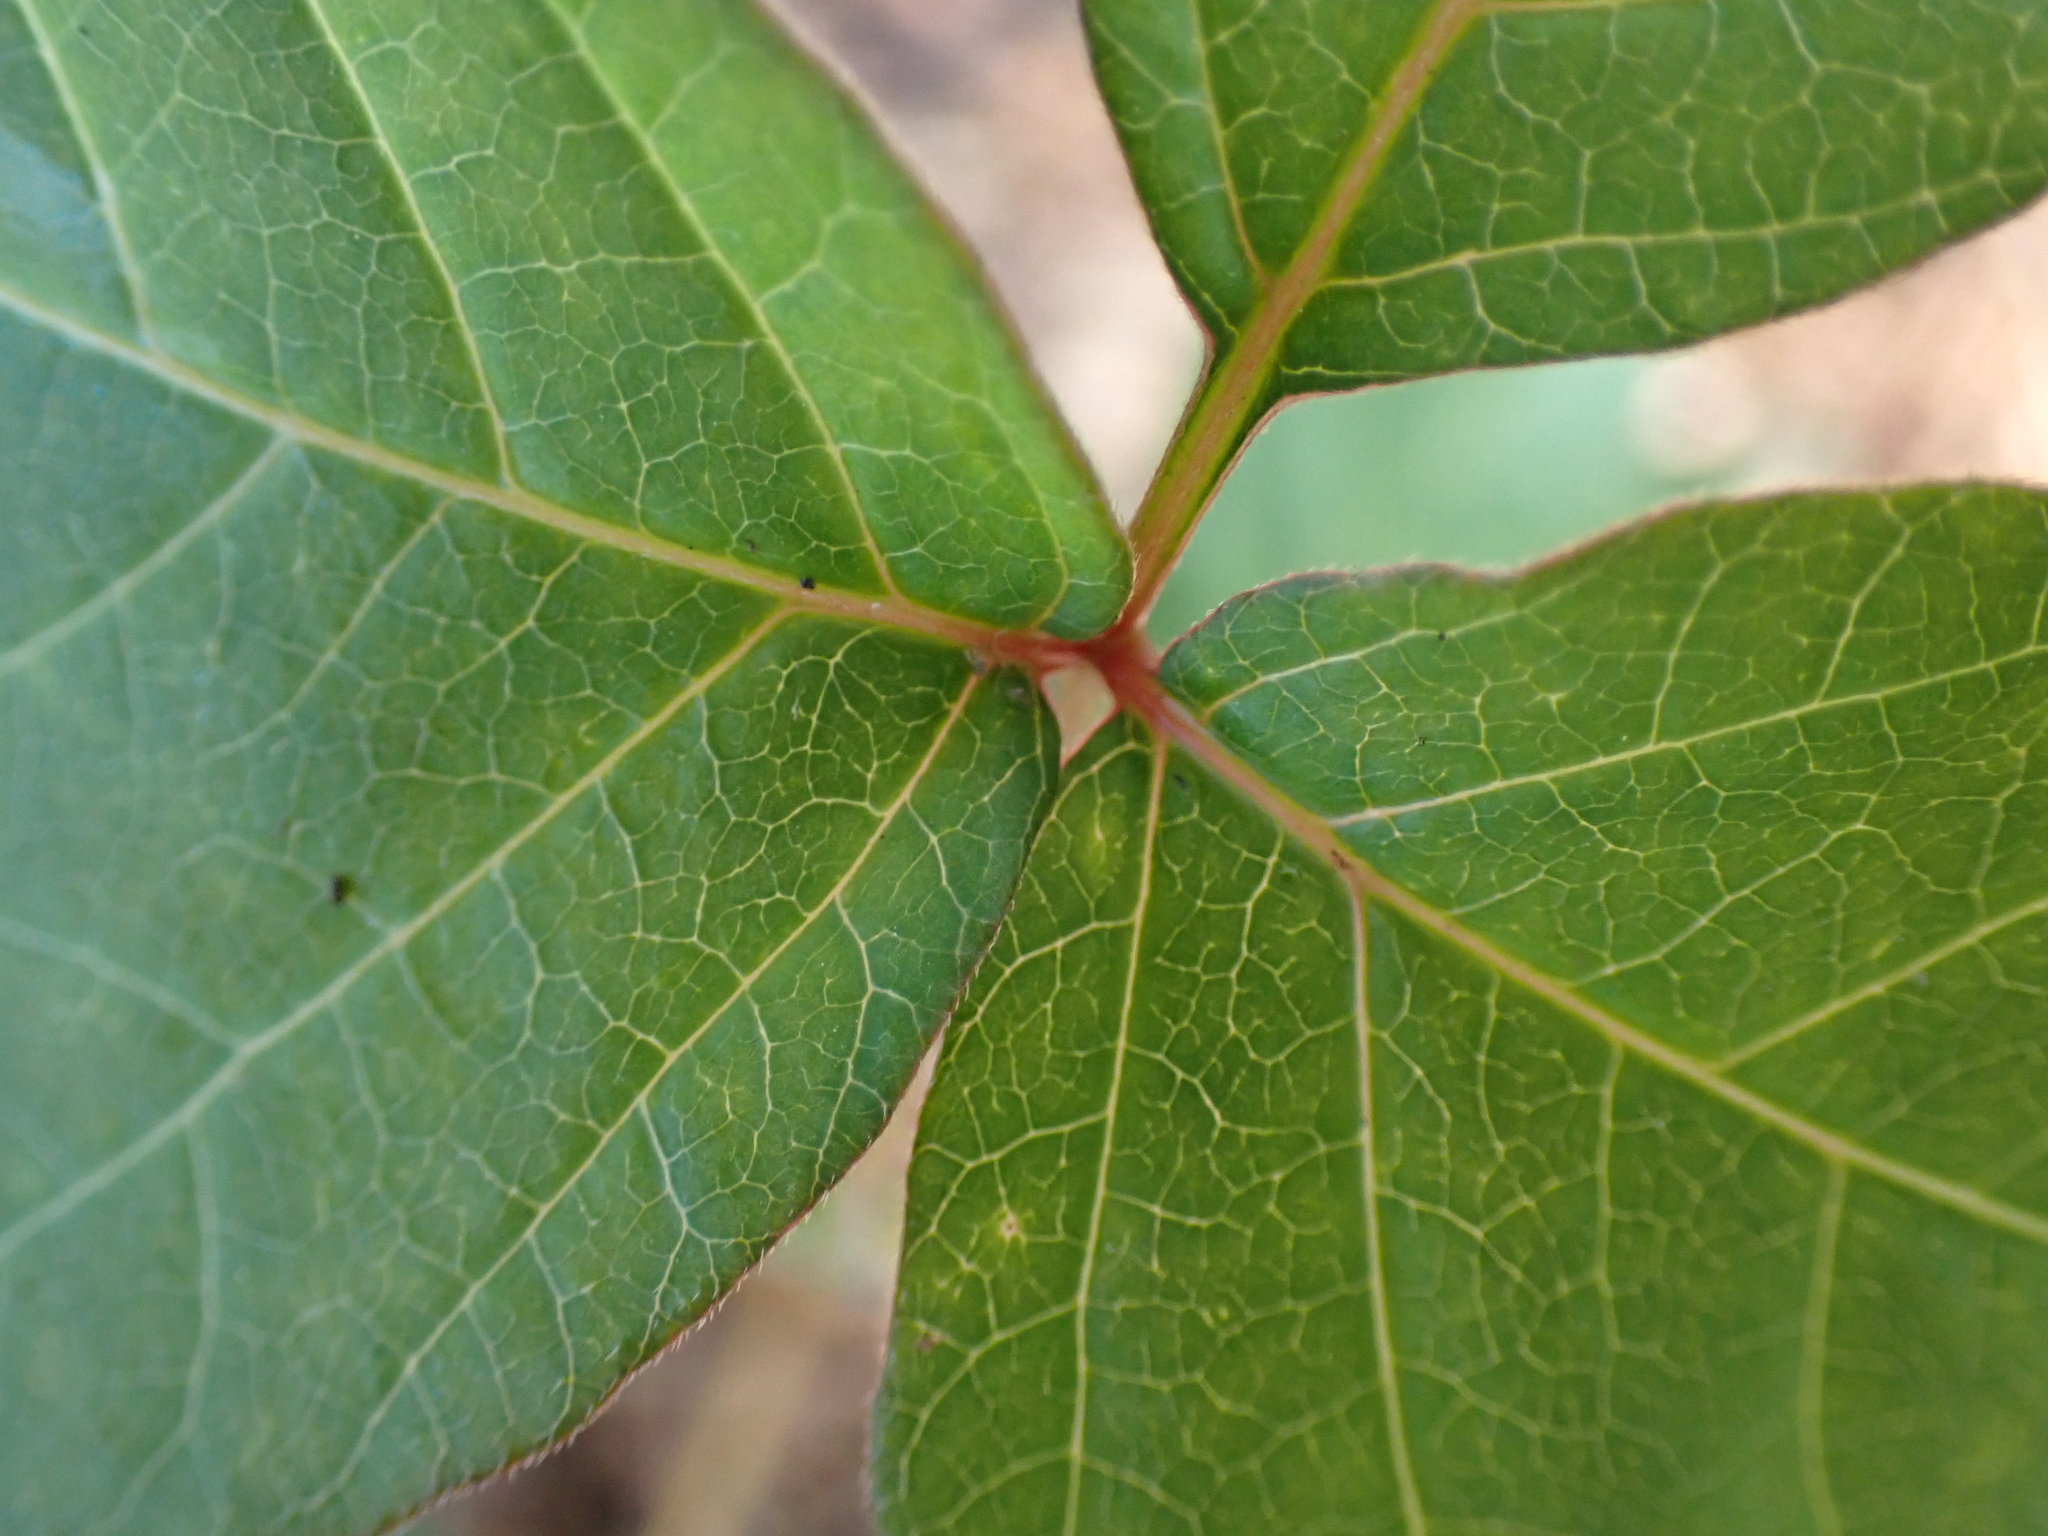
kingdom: Plantae
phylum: Tracheophyta
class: Magnoliopsida
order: Sapindales
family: Anacardiaceae
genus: Toxicodendron
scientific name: Toxicodendron radicans
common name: Poison ivy
